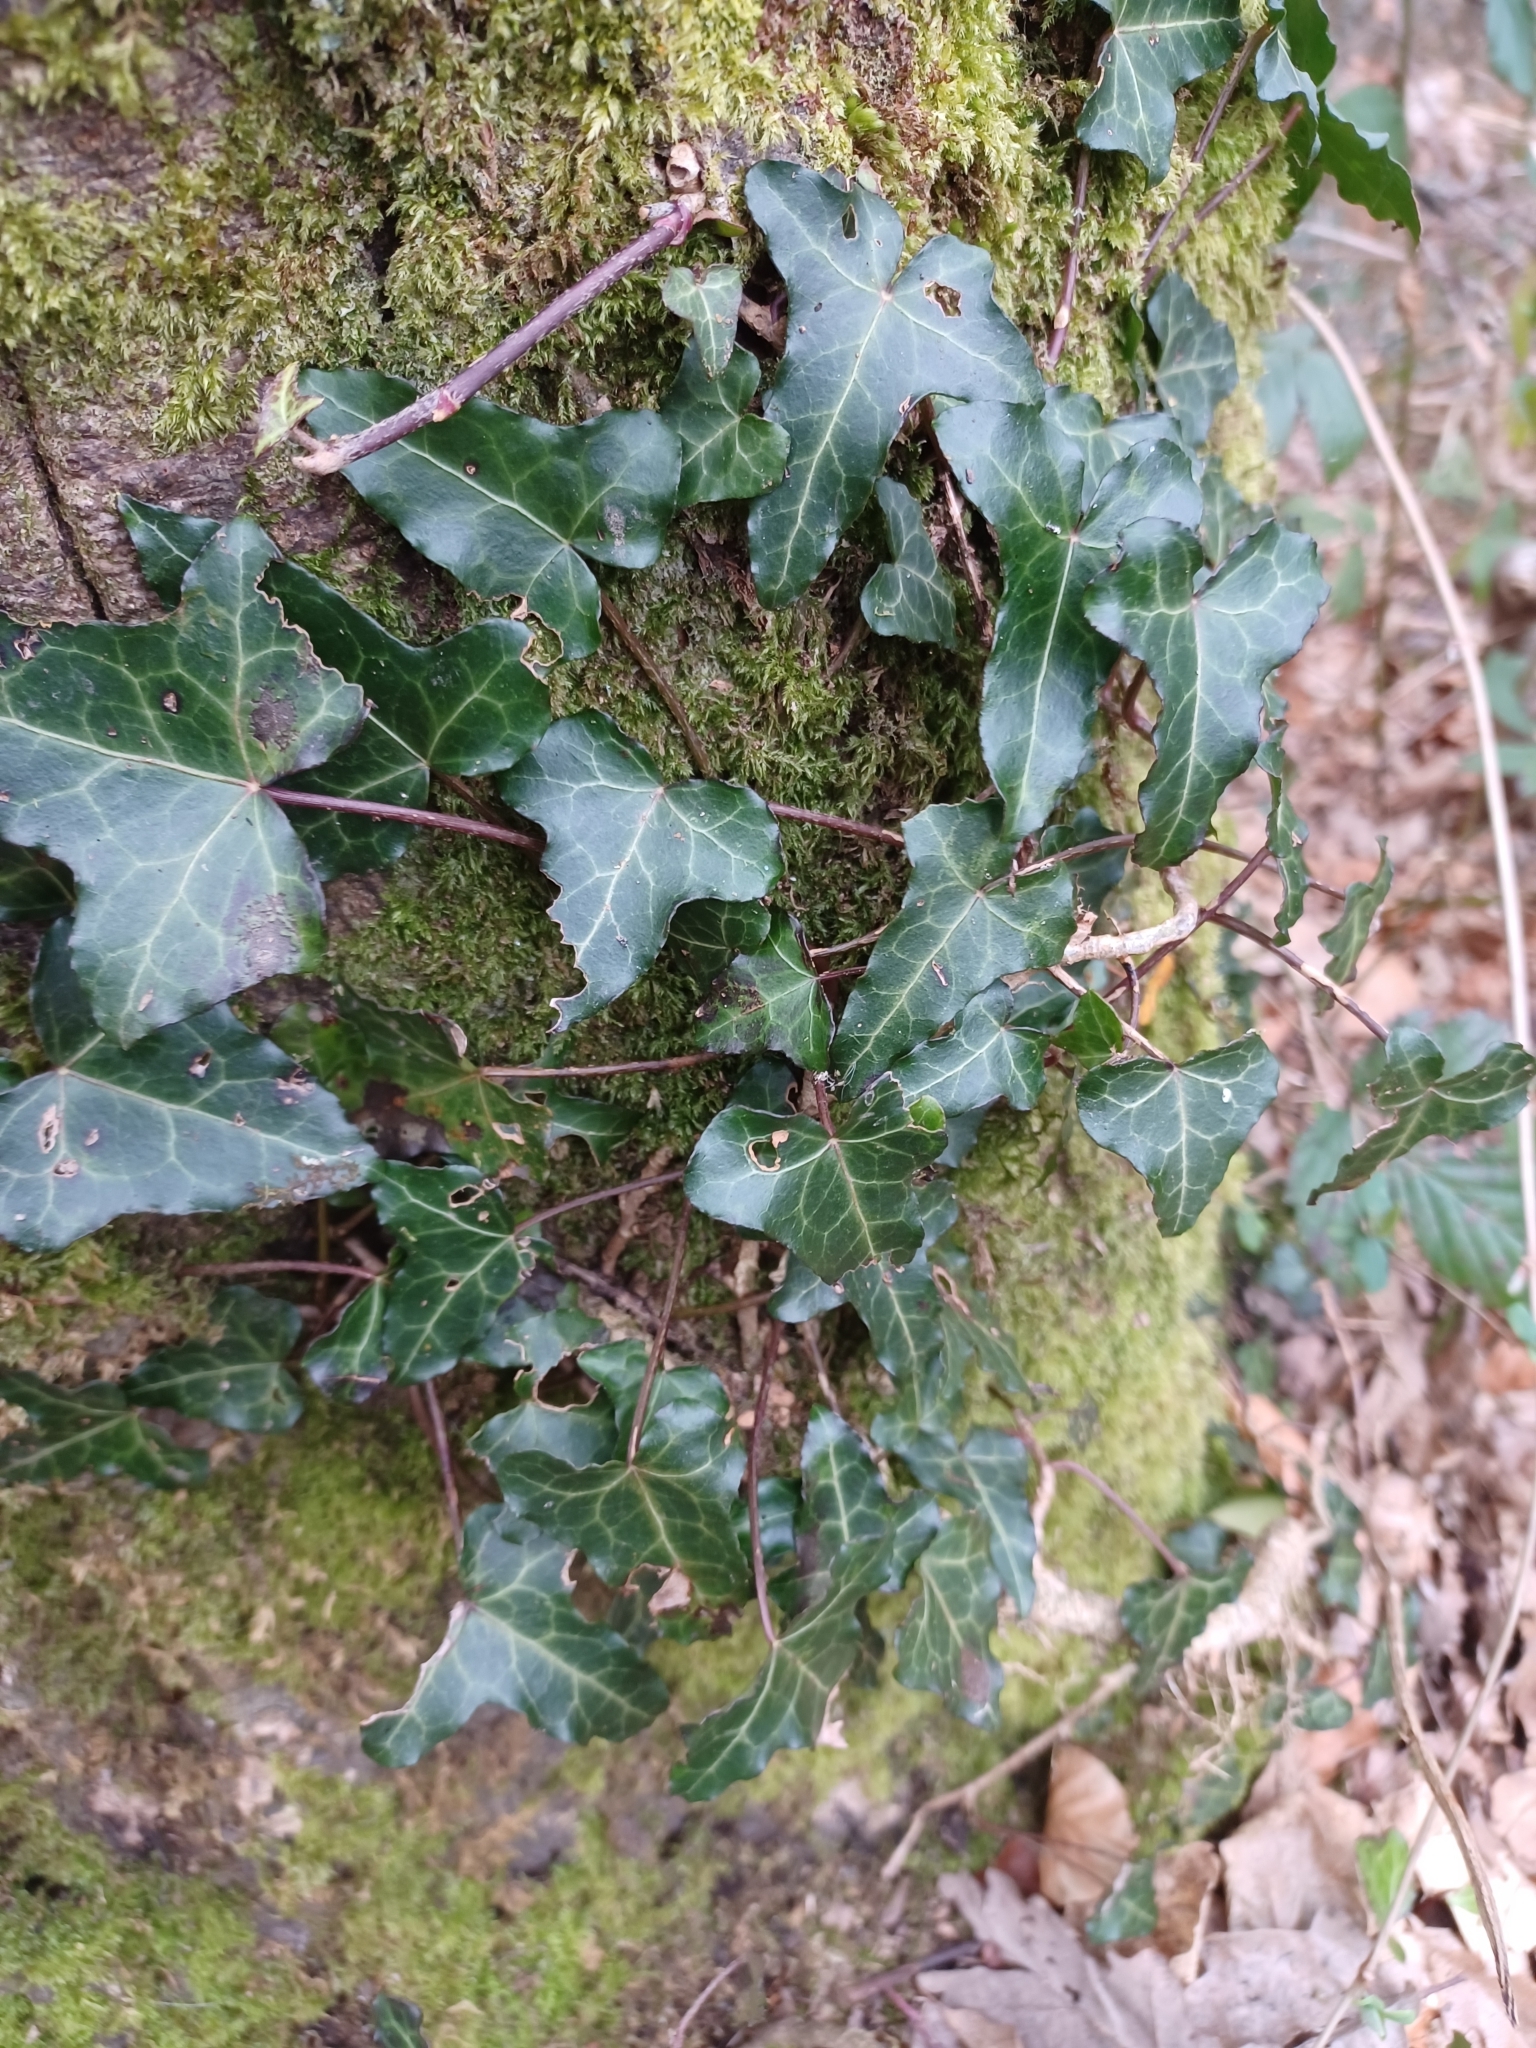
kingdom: Plantae
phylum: Tracheophyta
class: Magnoliopsida
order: Apiales
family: Araliaceae
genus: Hedera
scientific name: Hedera helix
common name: Ivy
